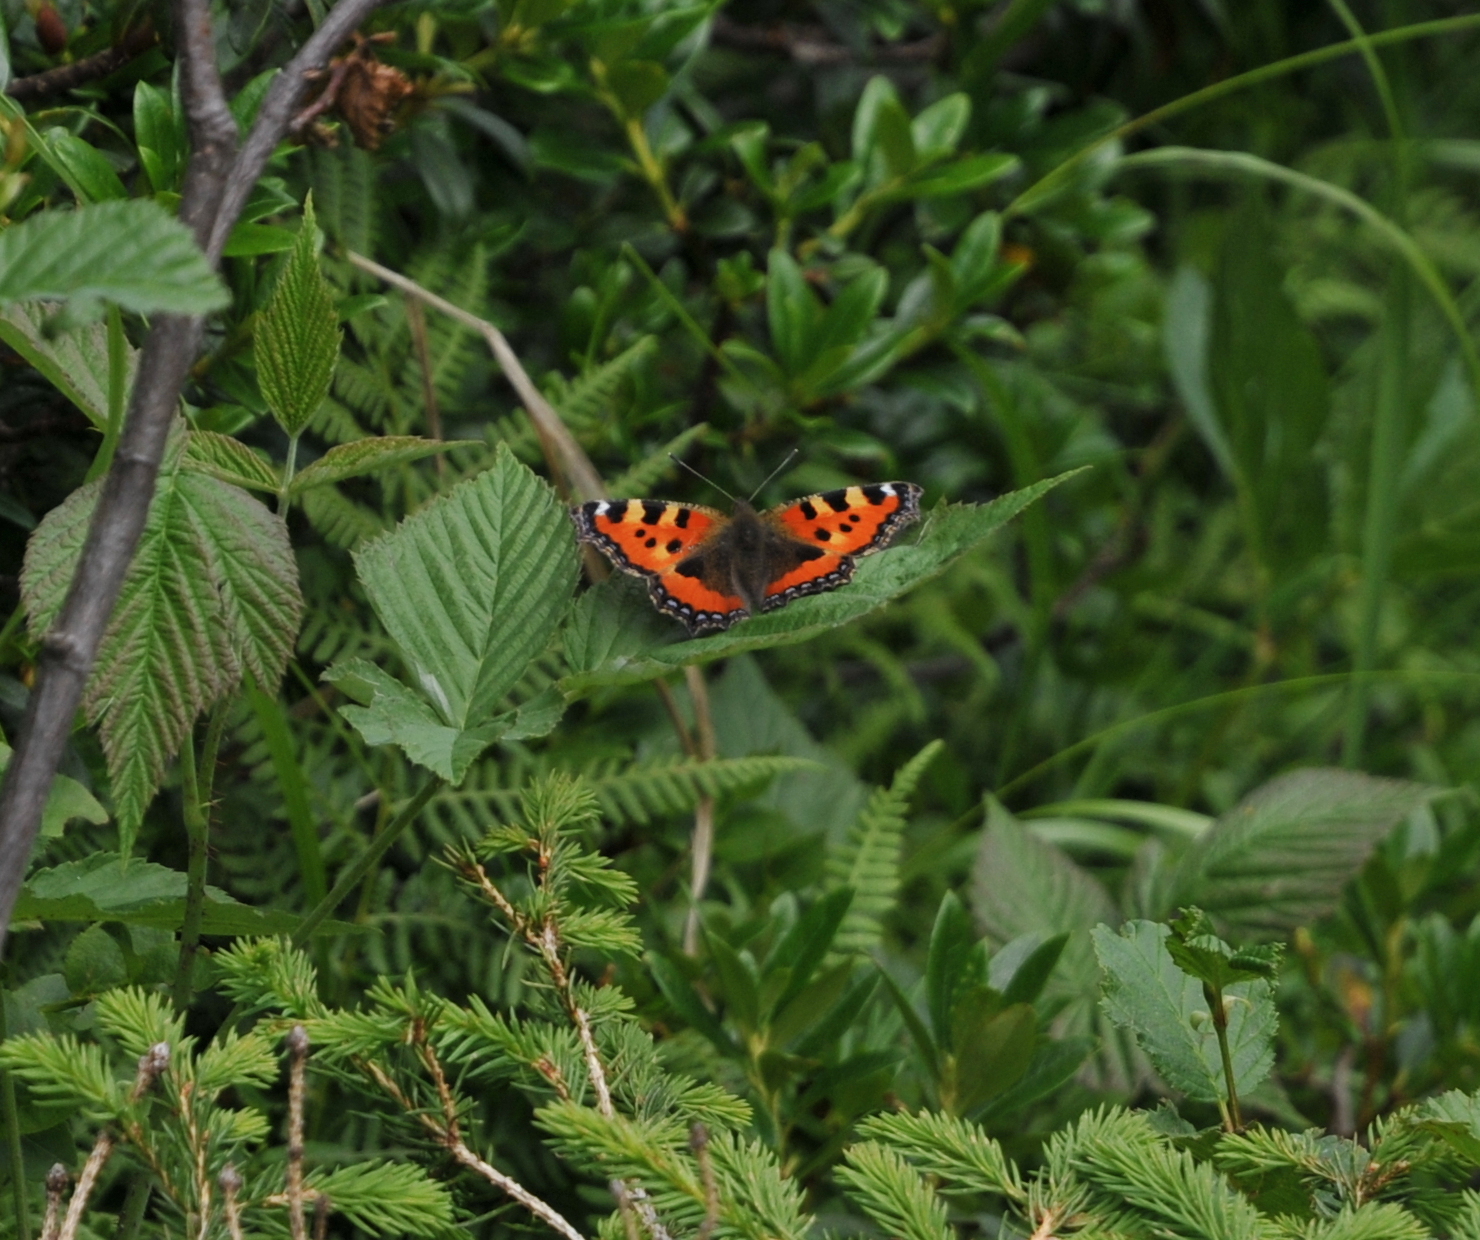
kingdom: Animalia
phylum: Arthropoda
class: Insecta
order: Lepidoptera
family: Nymphalidae
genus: Aglais
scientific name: Aglais urticae
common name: Small tortoiseshell
